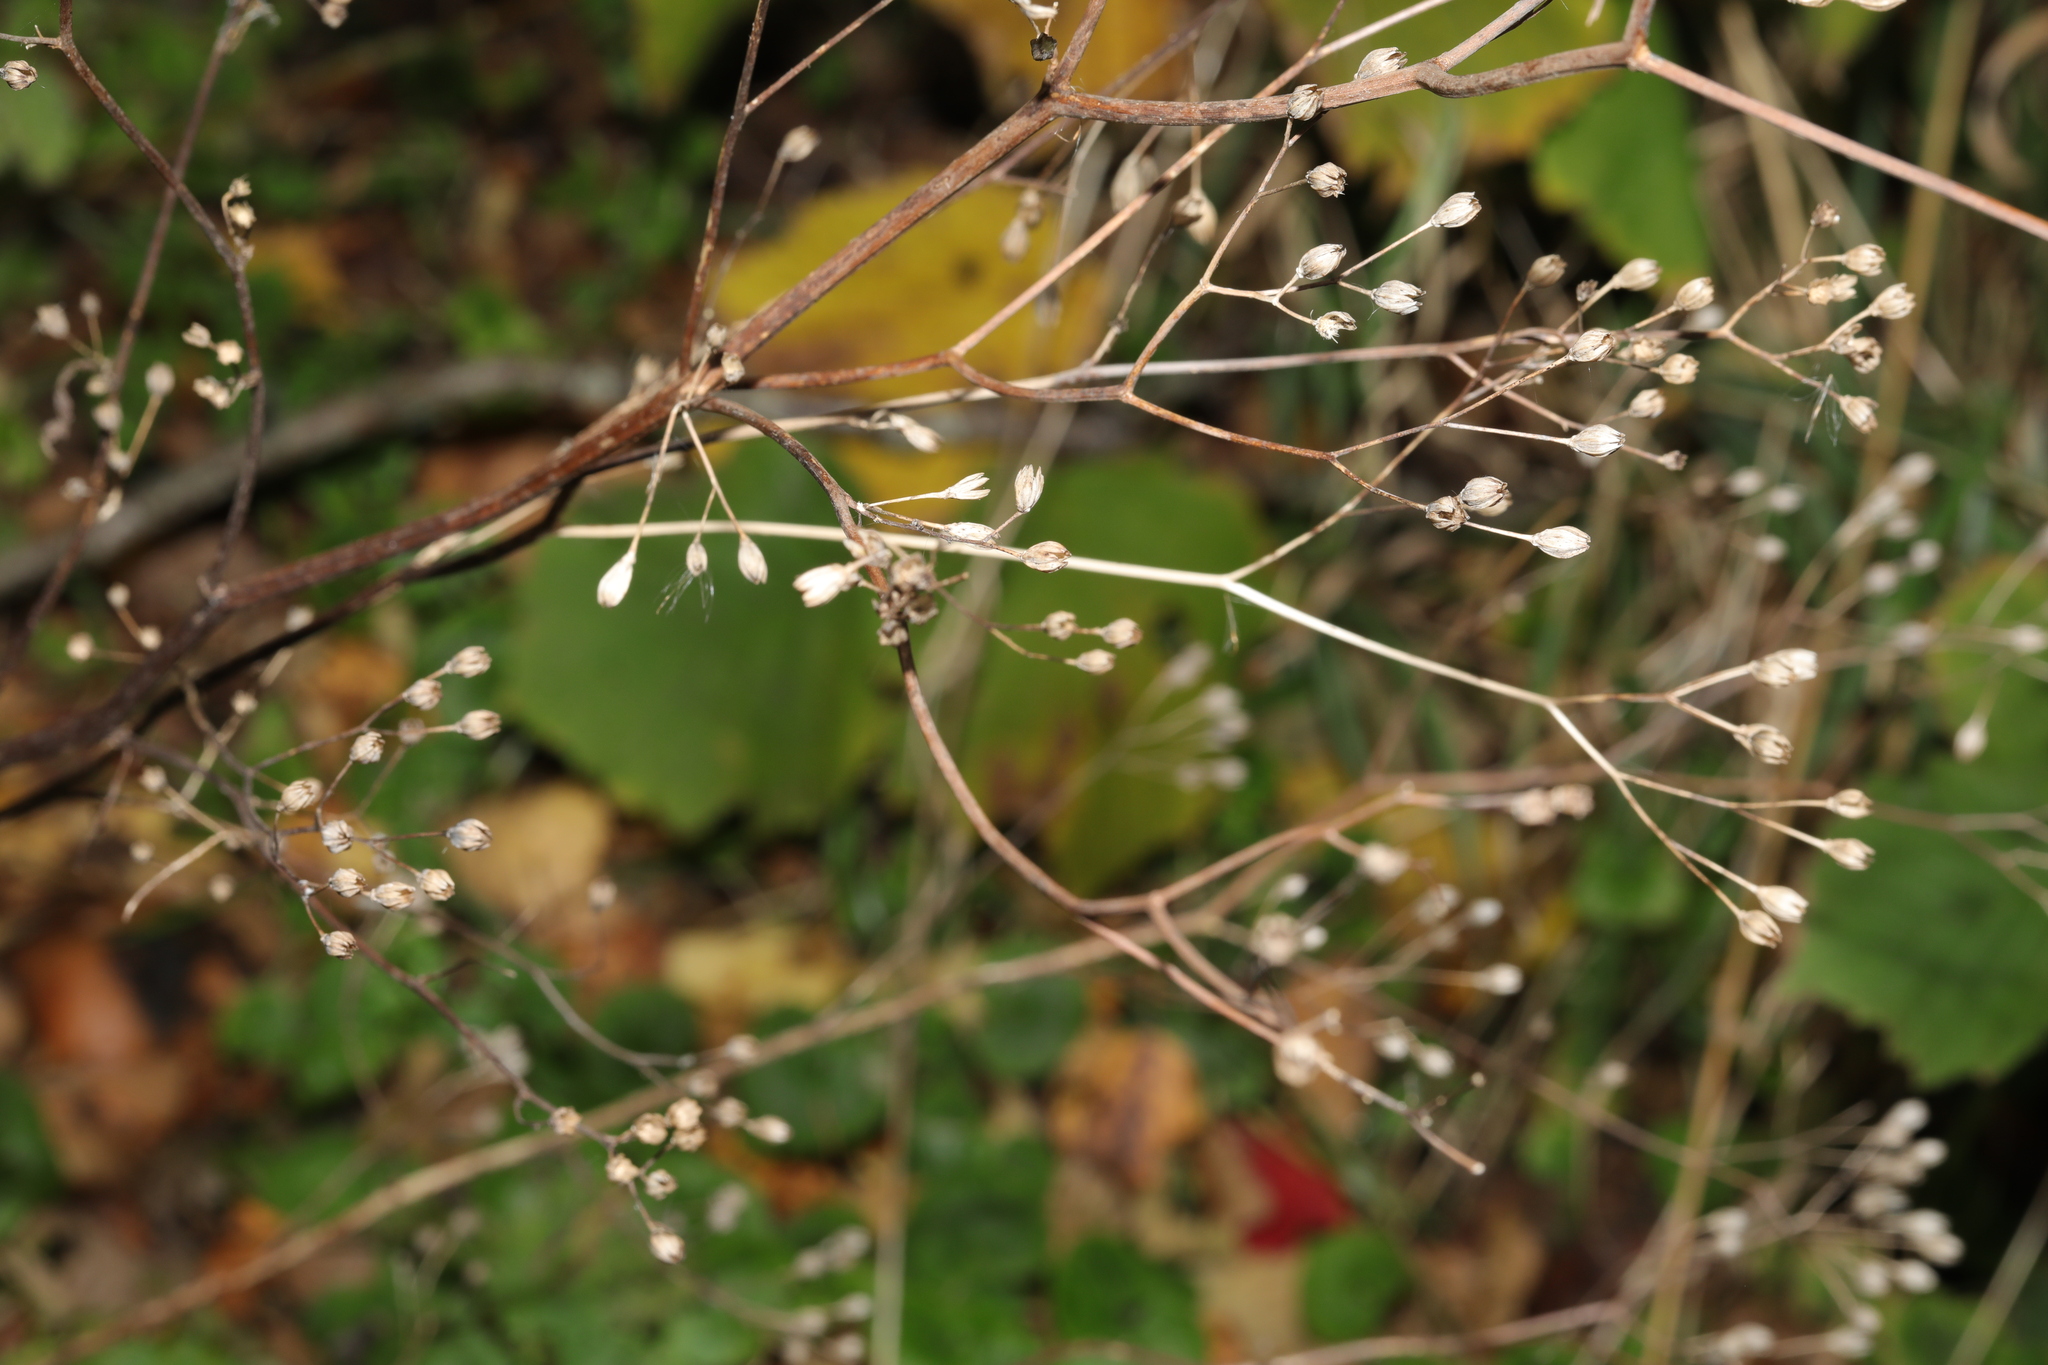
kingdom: Plantae
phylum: Tracheophyta
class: Magnoliopsida
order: Asterales
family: Asteraceae
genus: Lapsana
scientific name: Lapsana communis
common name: Nipplewort
